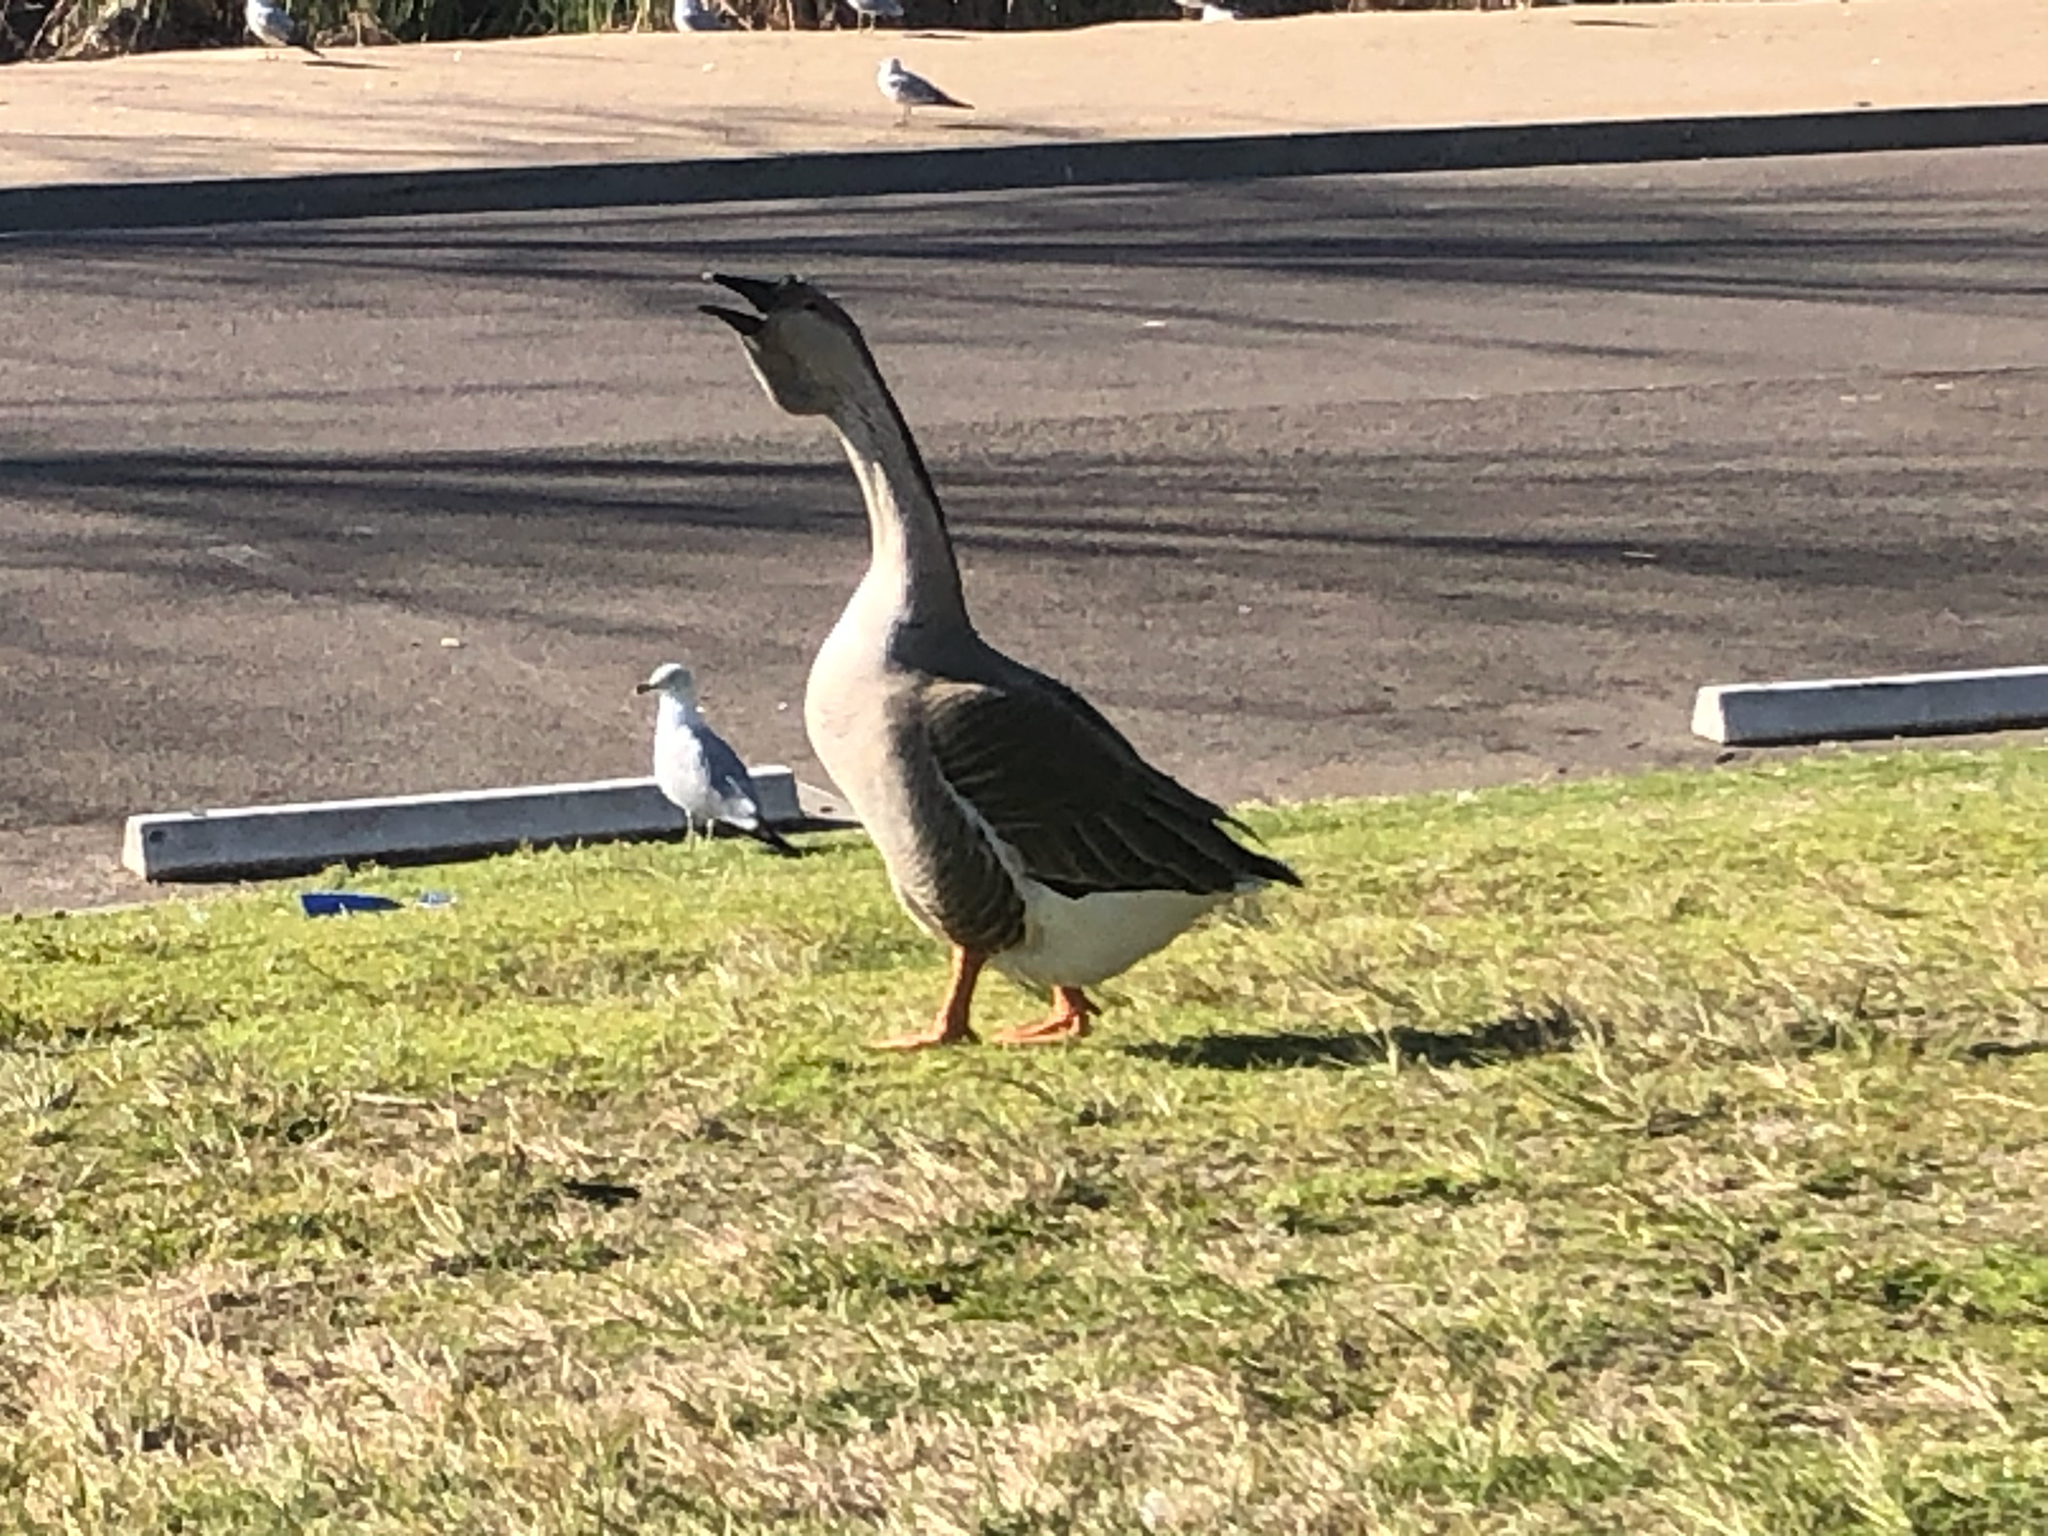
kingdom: Animalia
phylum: Chordata
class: Aves
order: Anseriformes
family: Anatidae
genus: Anser
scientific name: Anser cygnoides
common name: Swan goose
